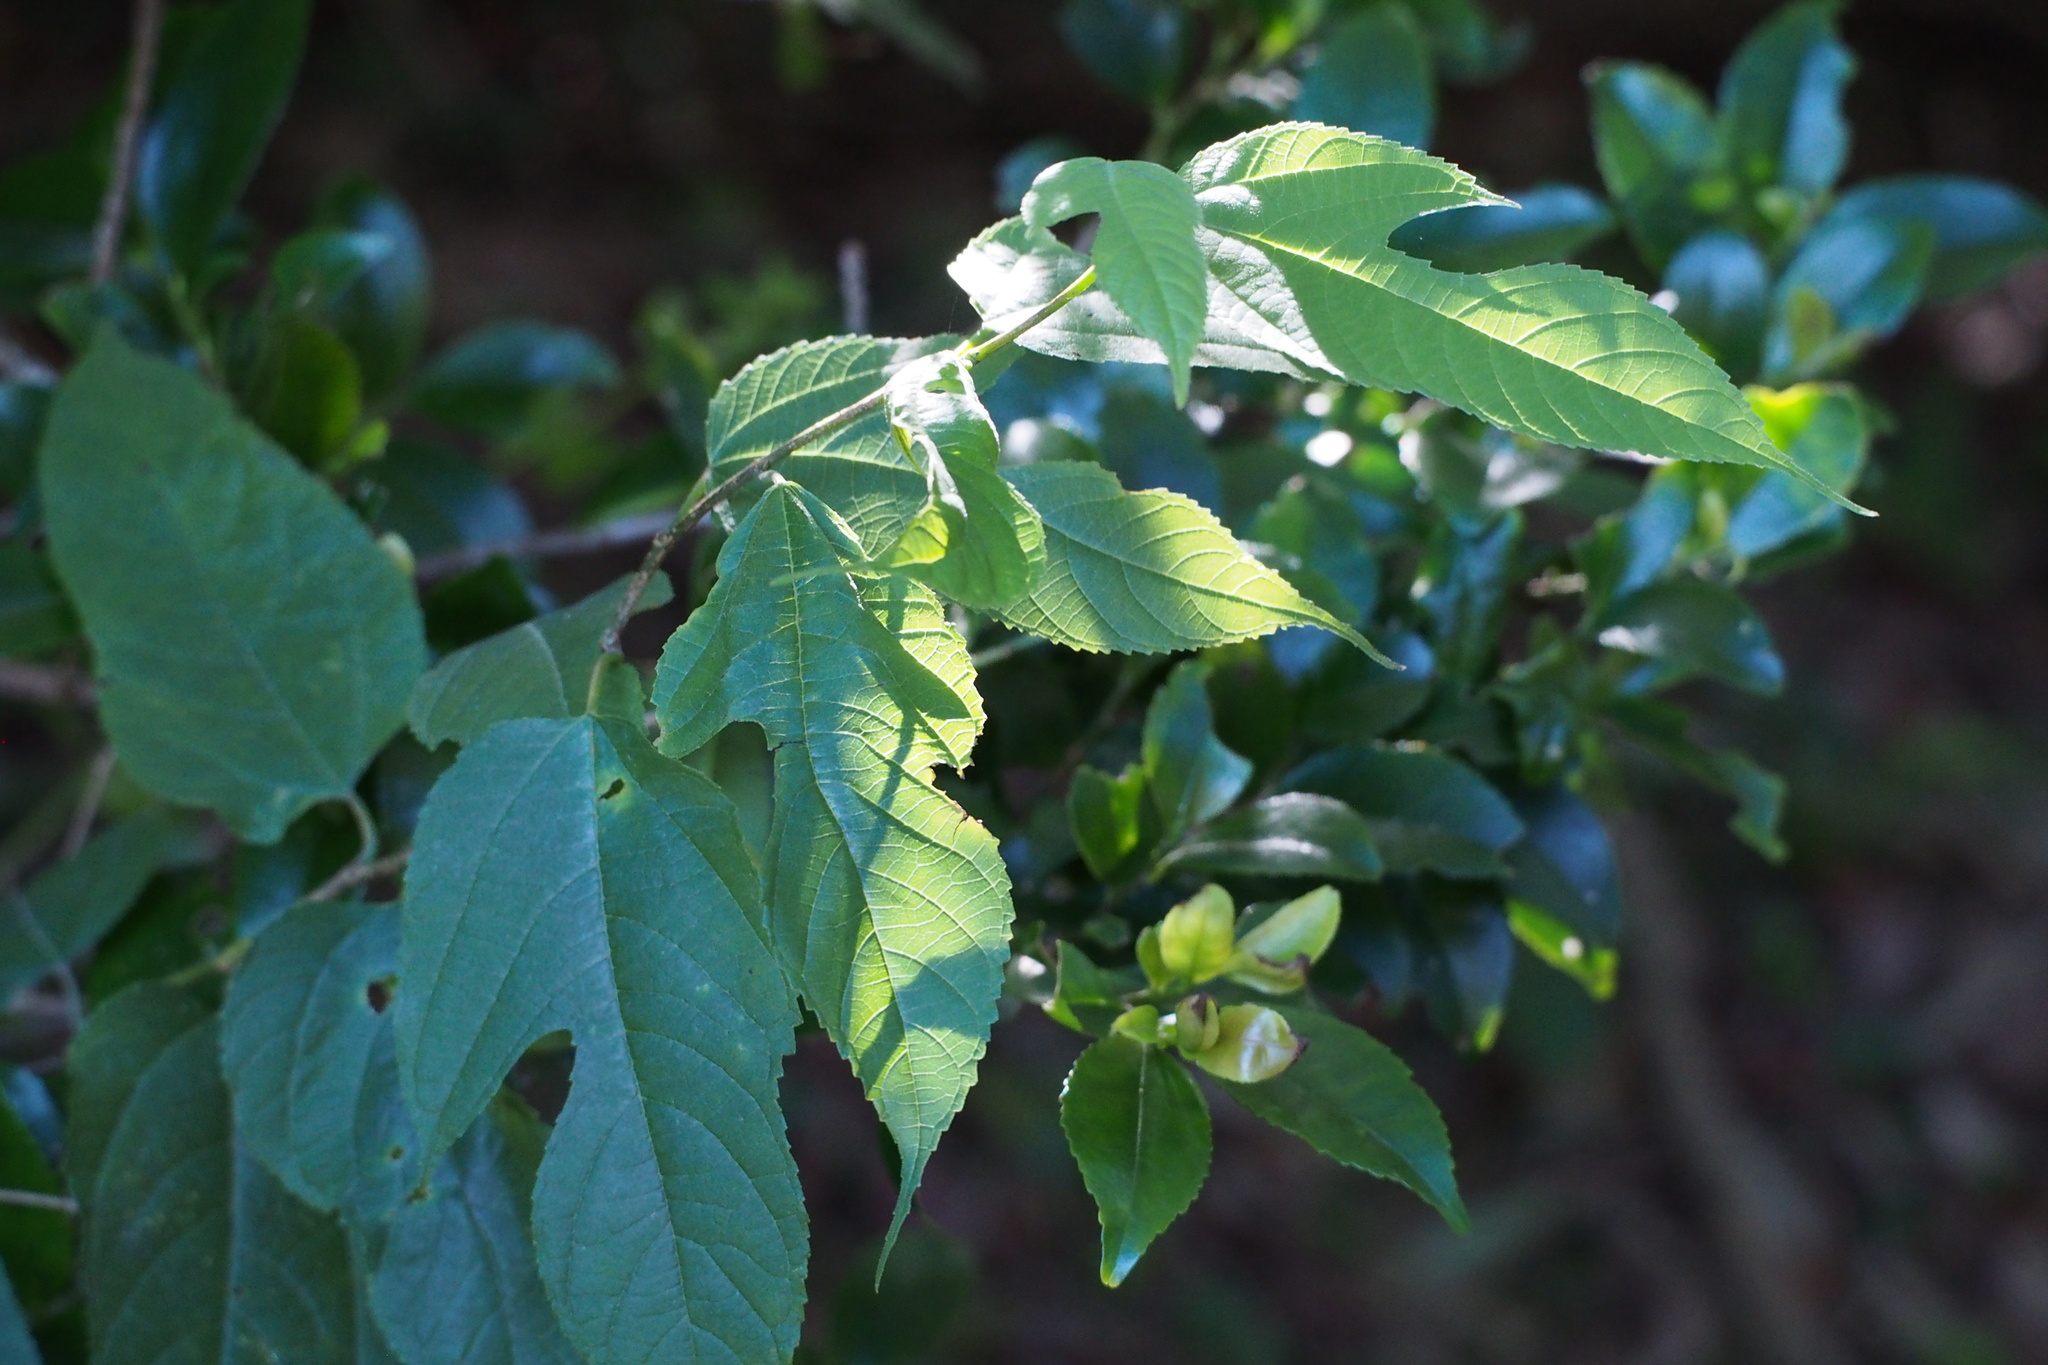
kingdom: Plantae
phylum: Tracheophyta
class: Magnoliopsida
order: Rosales
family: Moraceae
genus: Broussonetia
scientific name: Broussonetia monoica
